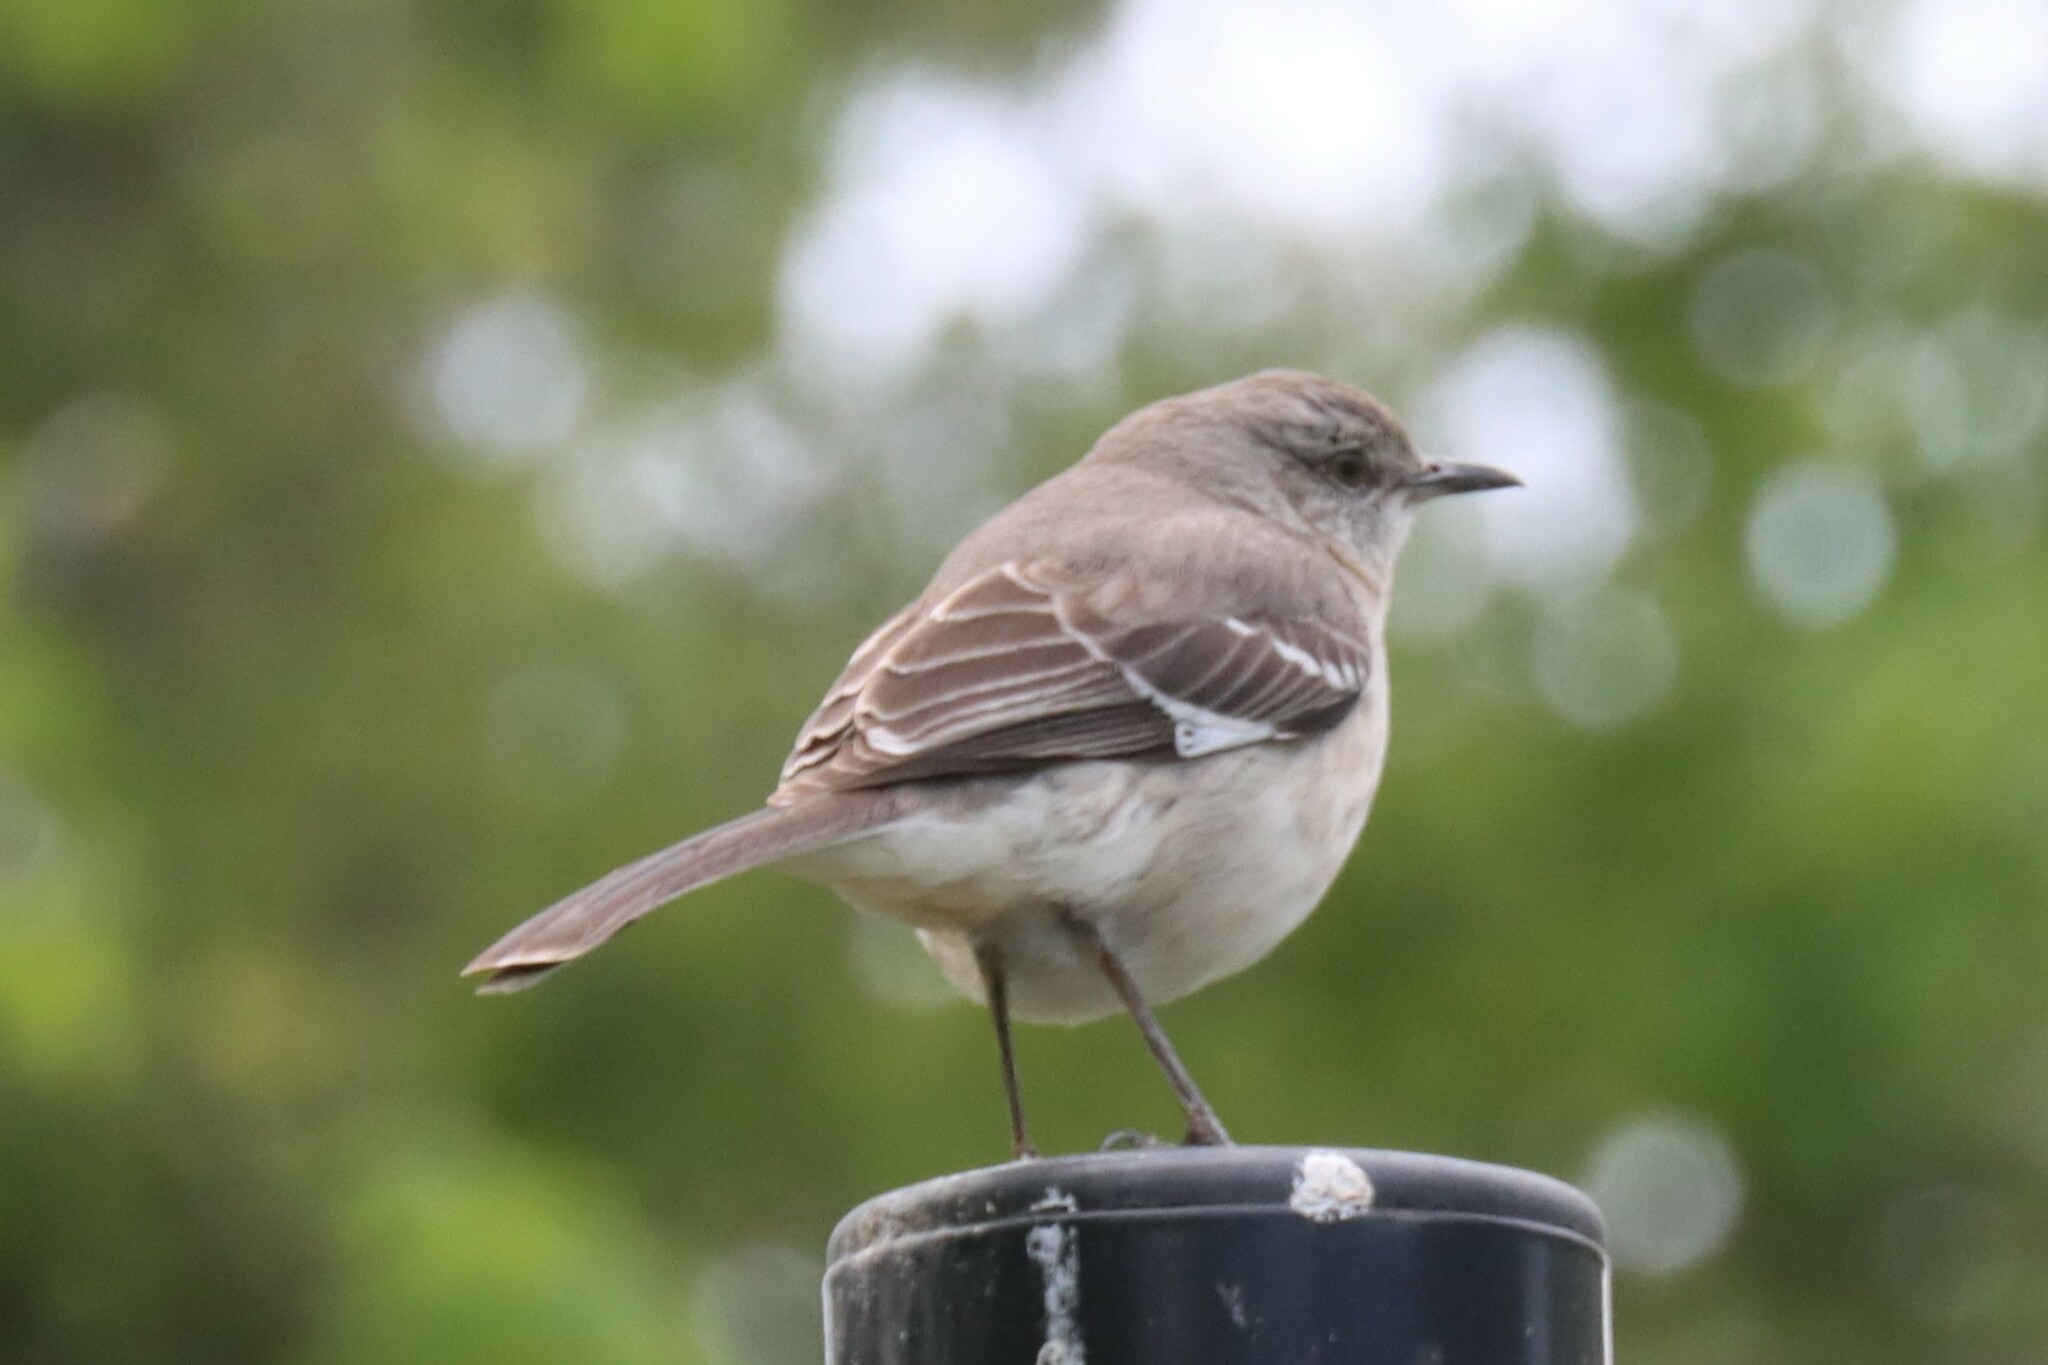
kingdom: Animalia
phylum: Chordata
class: Aves
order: Passeriformes
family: Mimidae
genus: Mimus
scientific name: Mimus polyglottos
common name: Northern mockingbird
